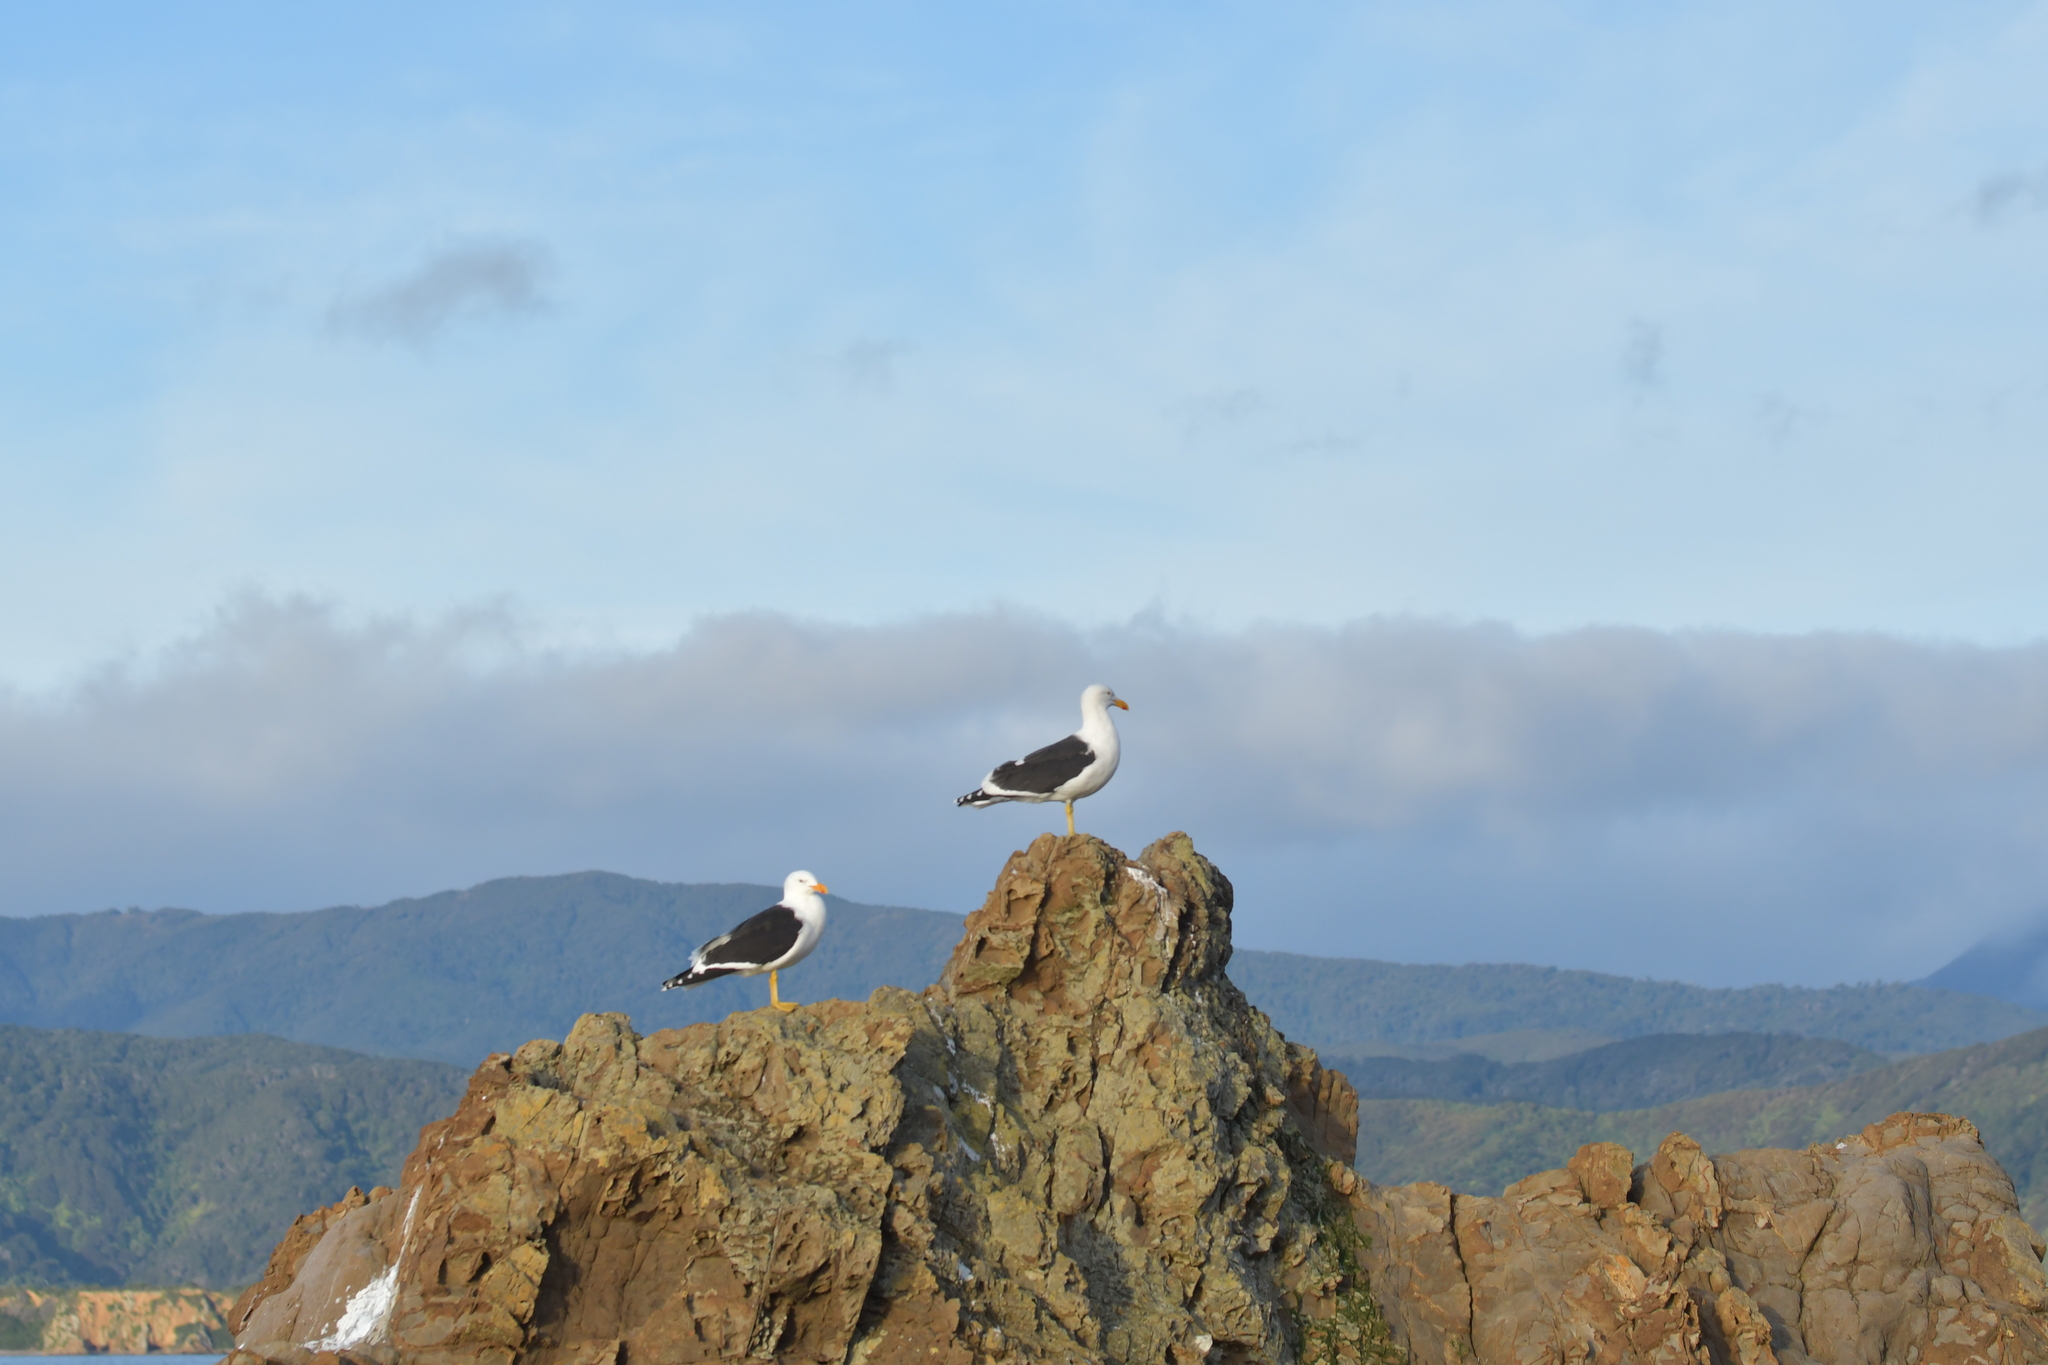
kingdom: Animalia
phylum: Chordata
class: Aves
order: Charadriiformes
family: Laridae
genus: Larus
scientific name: Larus dominicanus
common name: Kelp gull
